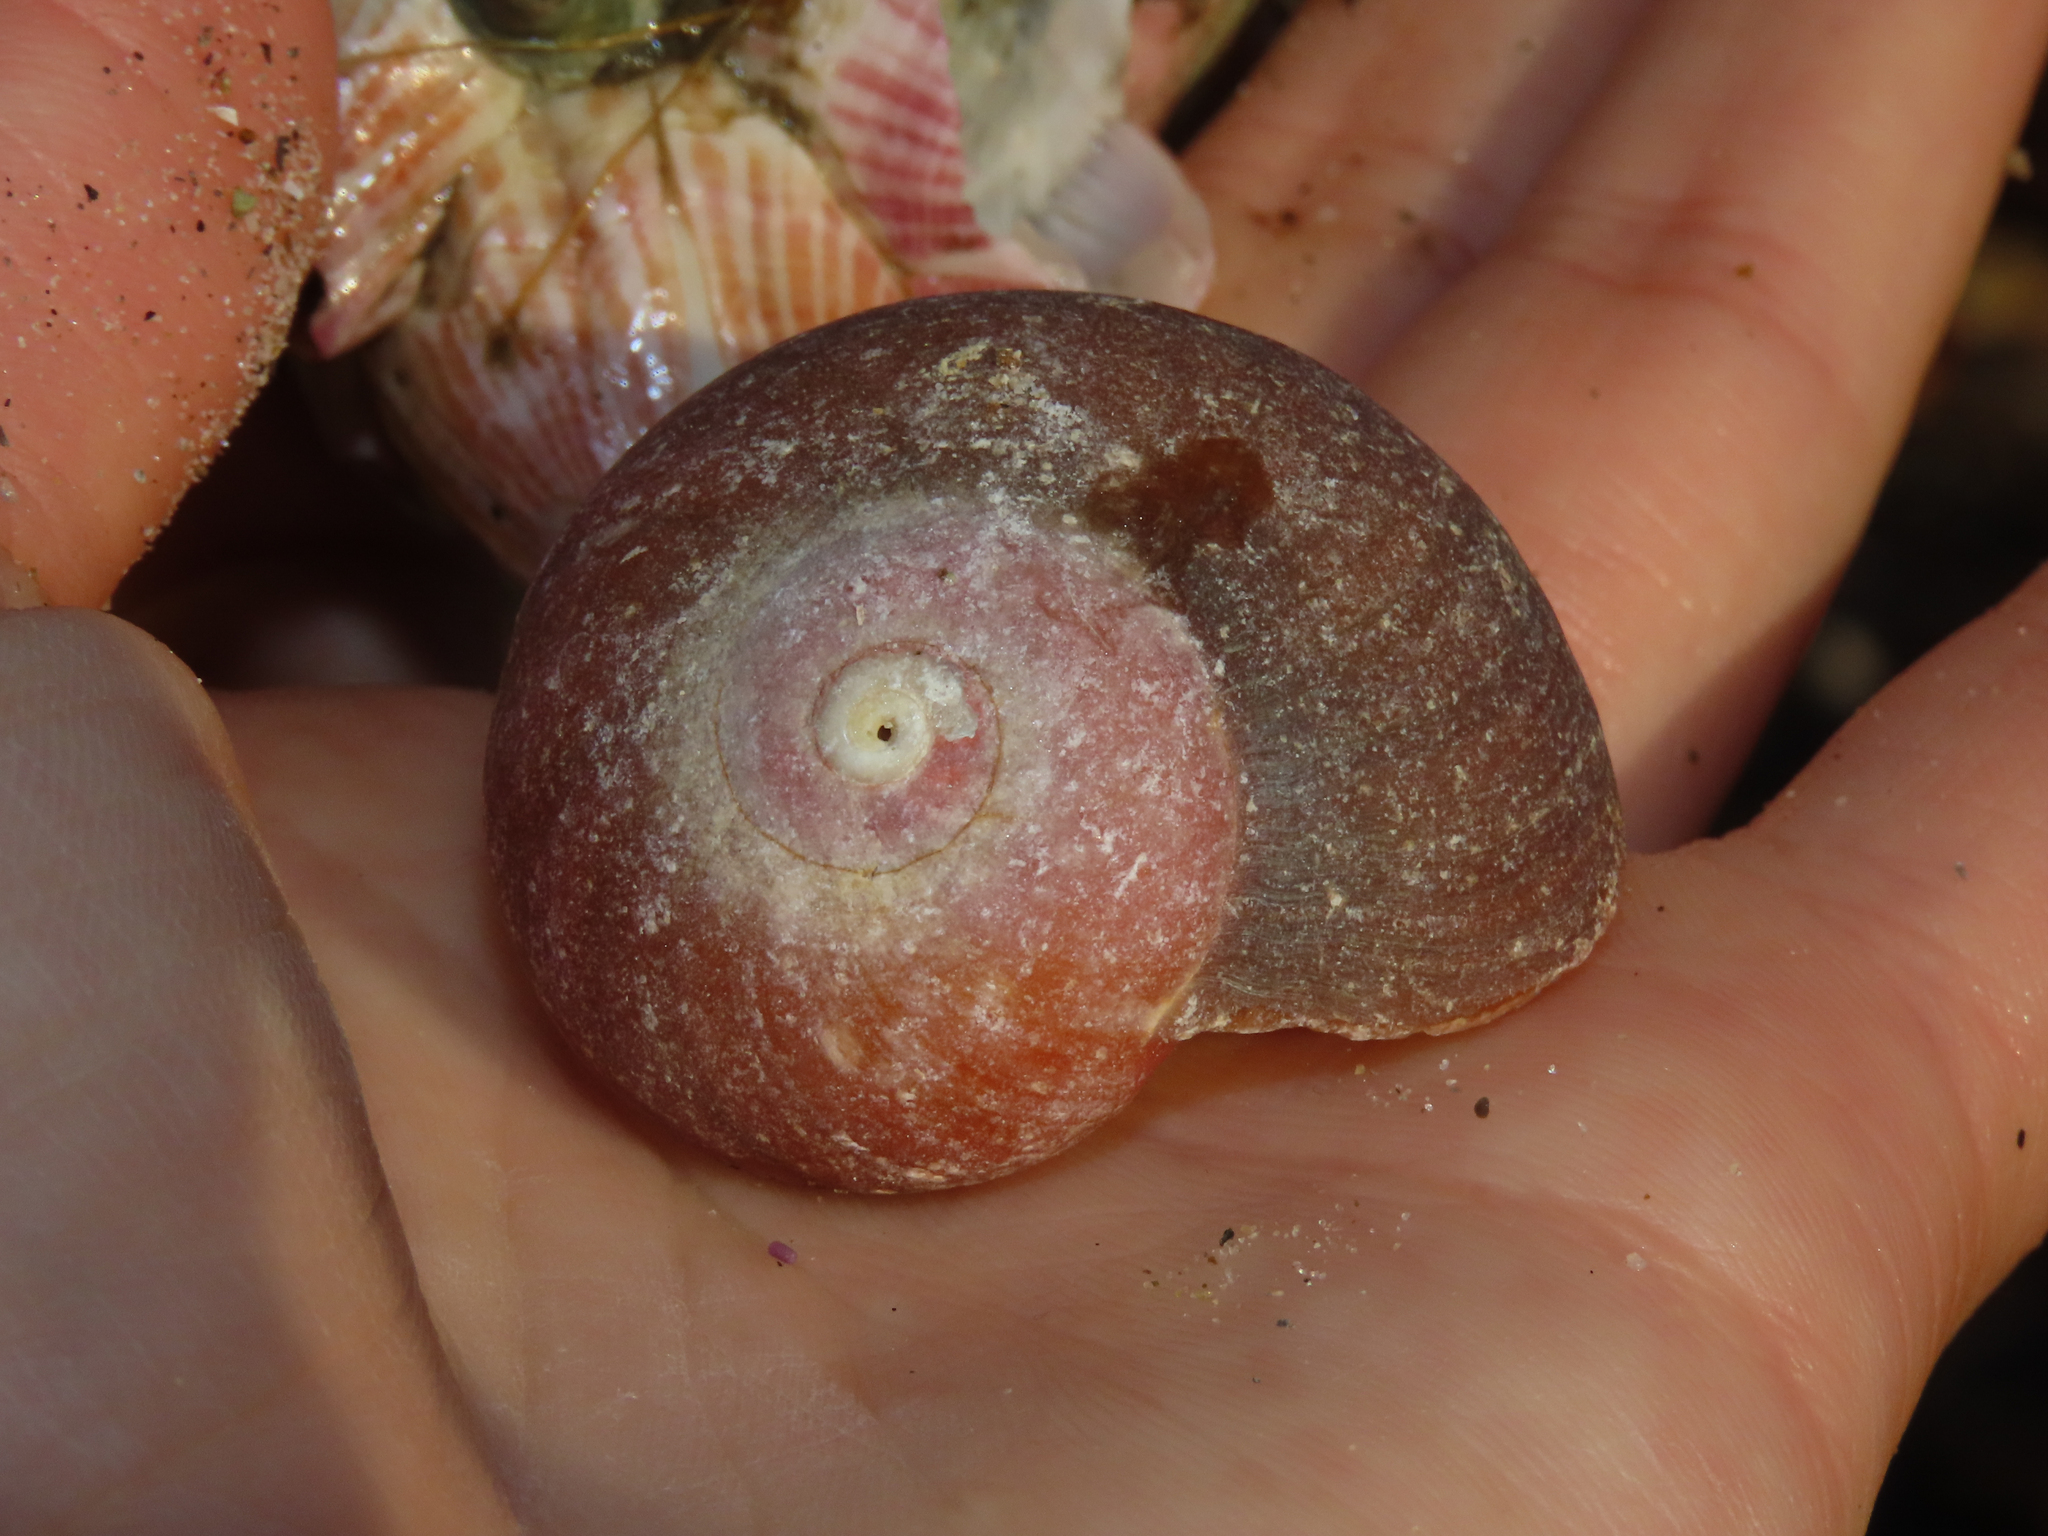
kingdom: Animalia
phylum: Mollusca
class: Gastropoda
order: Trochida
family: Tegulidae
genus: Norrisia
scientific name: Norrisia norrisii
